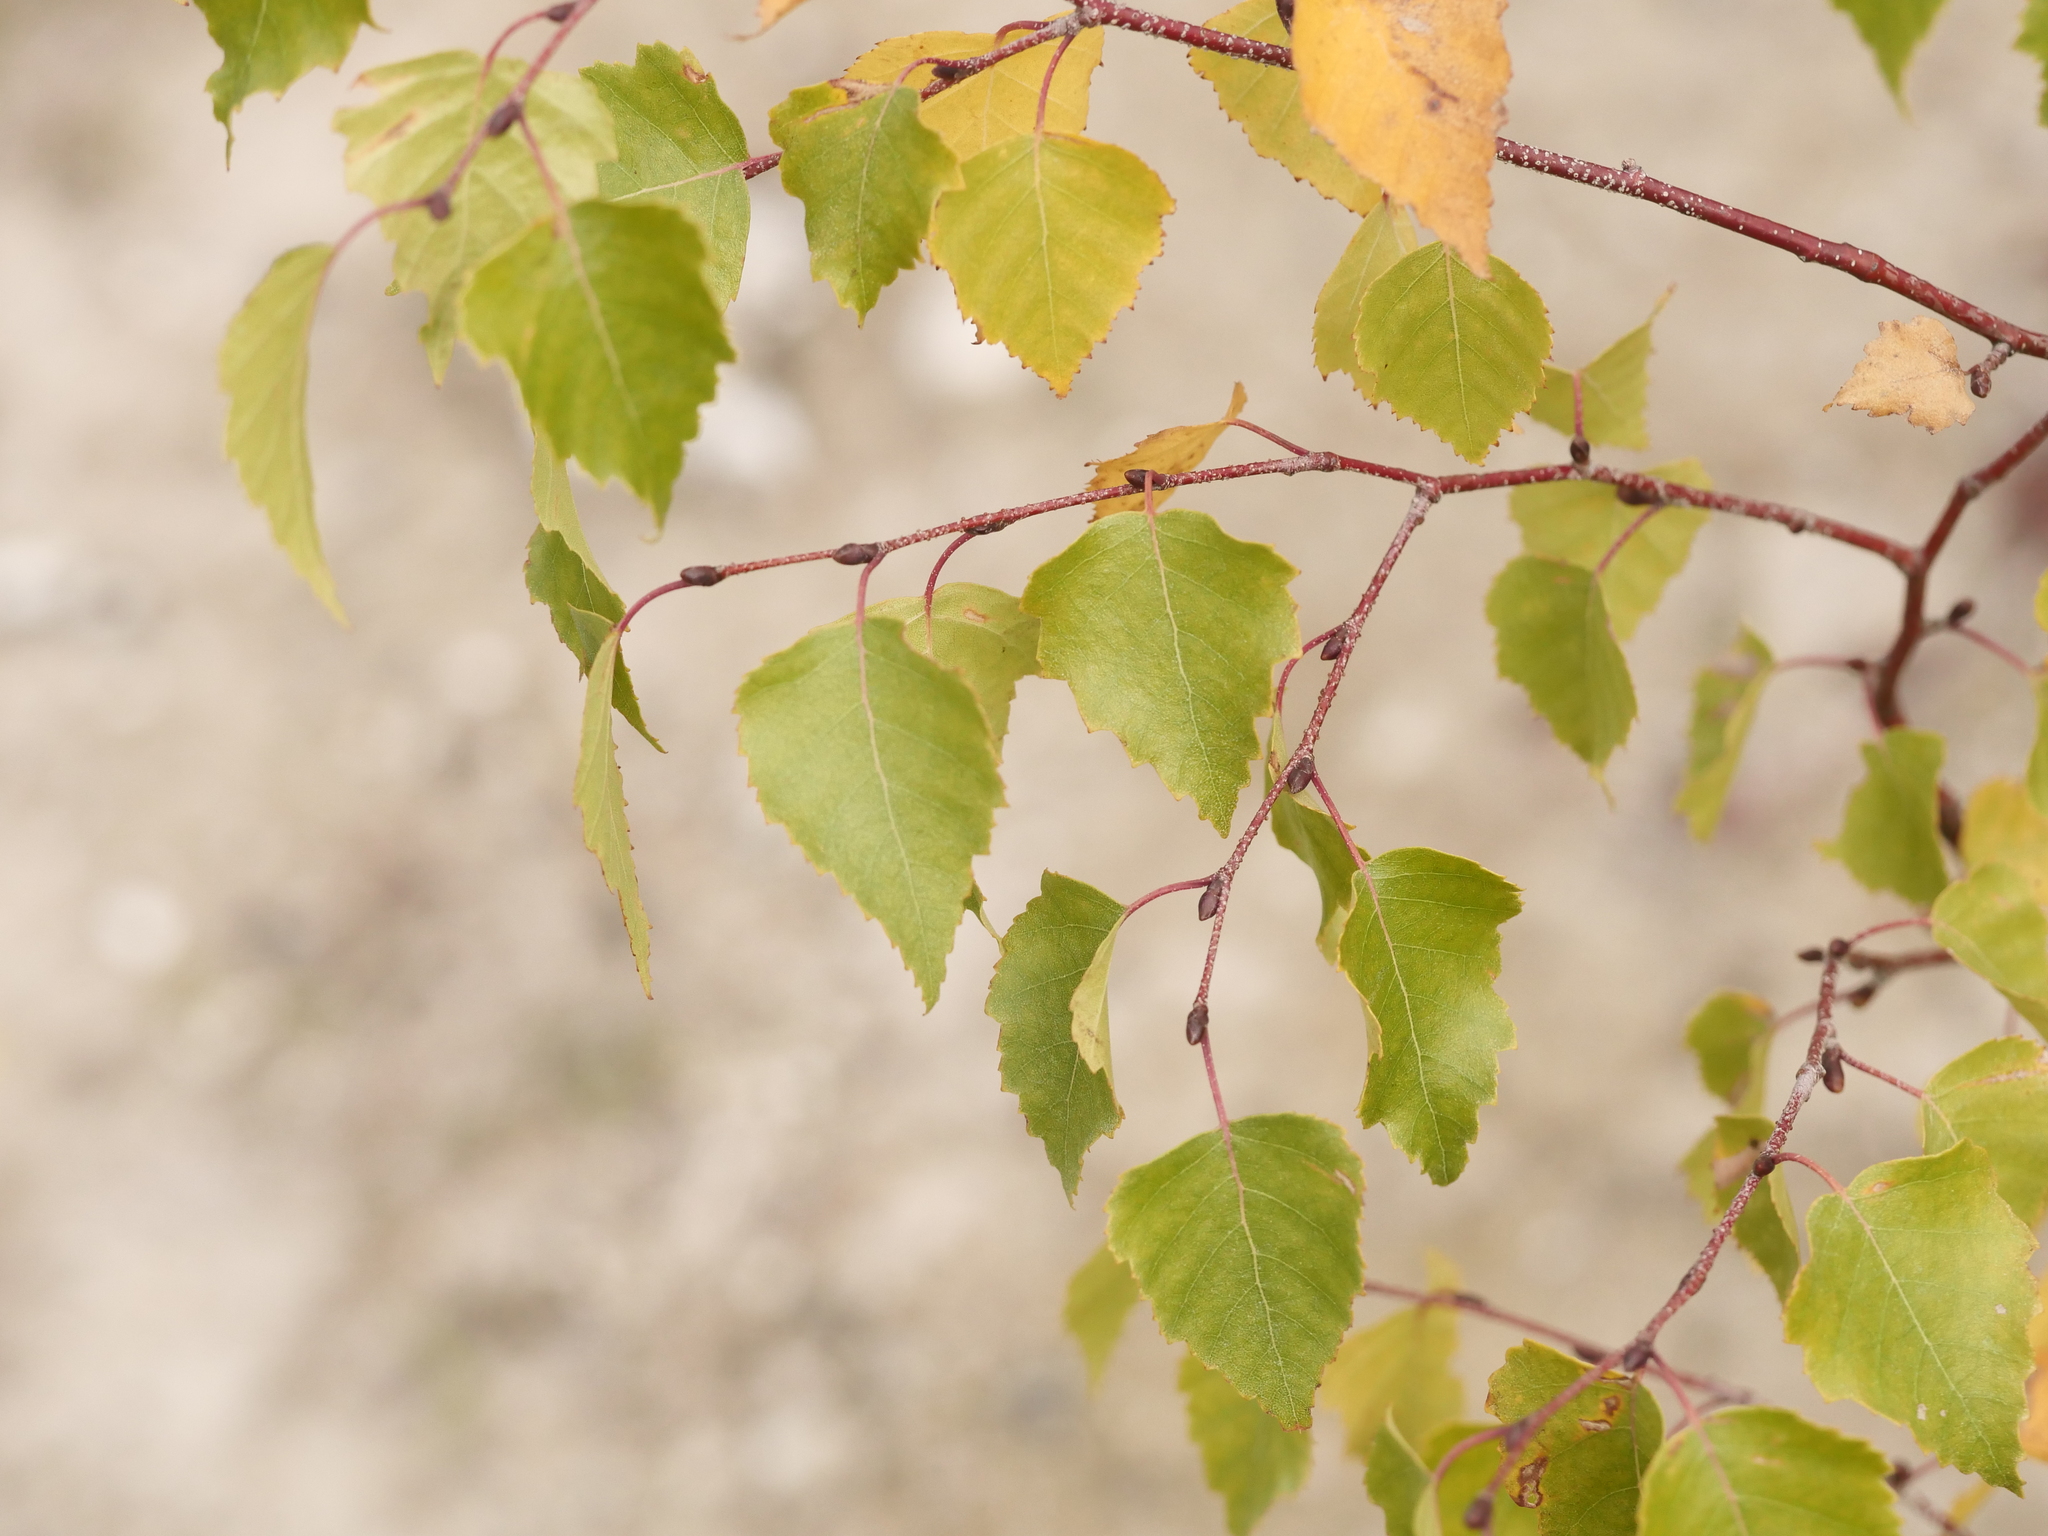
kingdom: Plantae
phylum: Tracheophyta
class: Magnoliopsida
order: Fagales
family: Betulaceae
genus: Betula
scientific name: Betula pendula
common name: Silver birch
